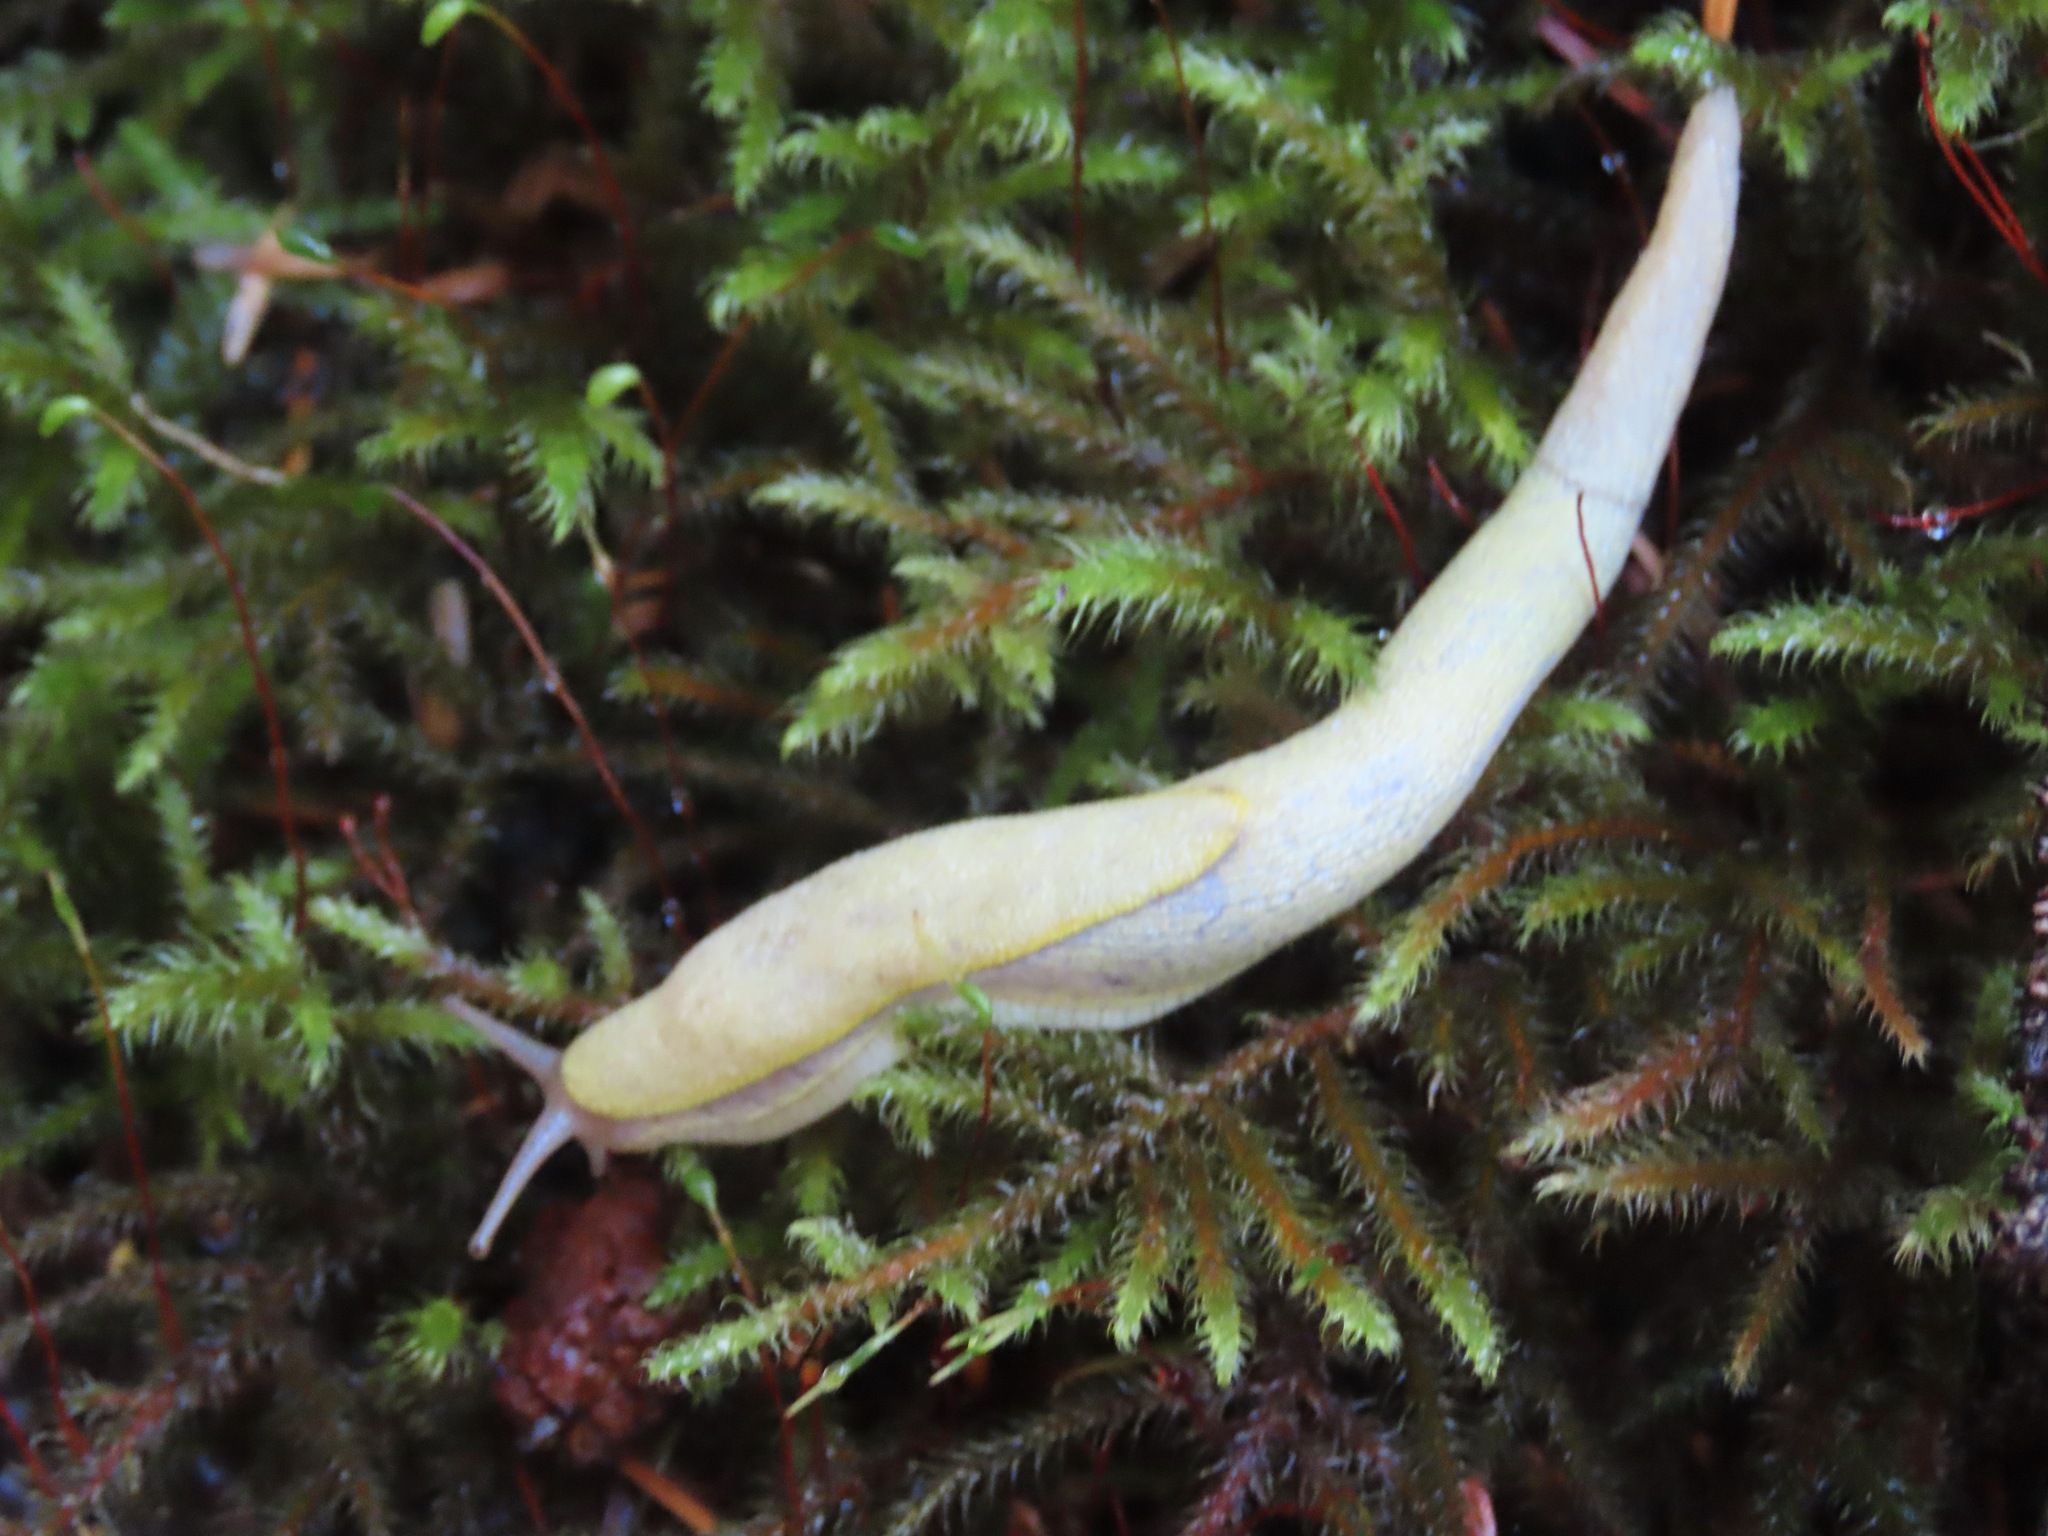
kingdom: Animalia
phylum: Mollusca
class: Gastropoda
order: Stylommatophora
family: Ariolimacidae
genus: Prophysaon
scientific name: Prophysaon foliolatum
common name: Yellow-bordered taildropper
